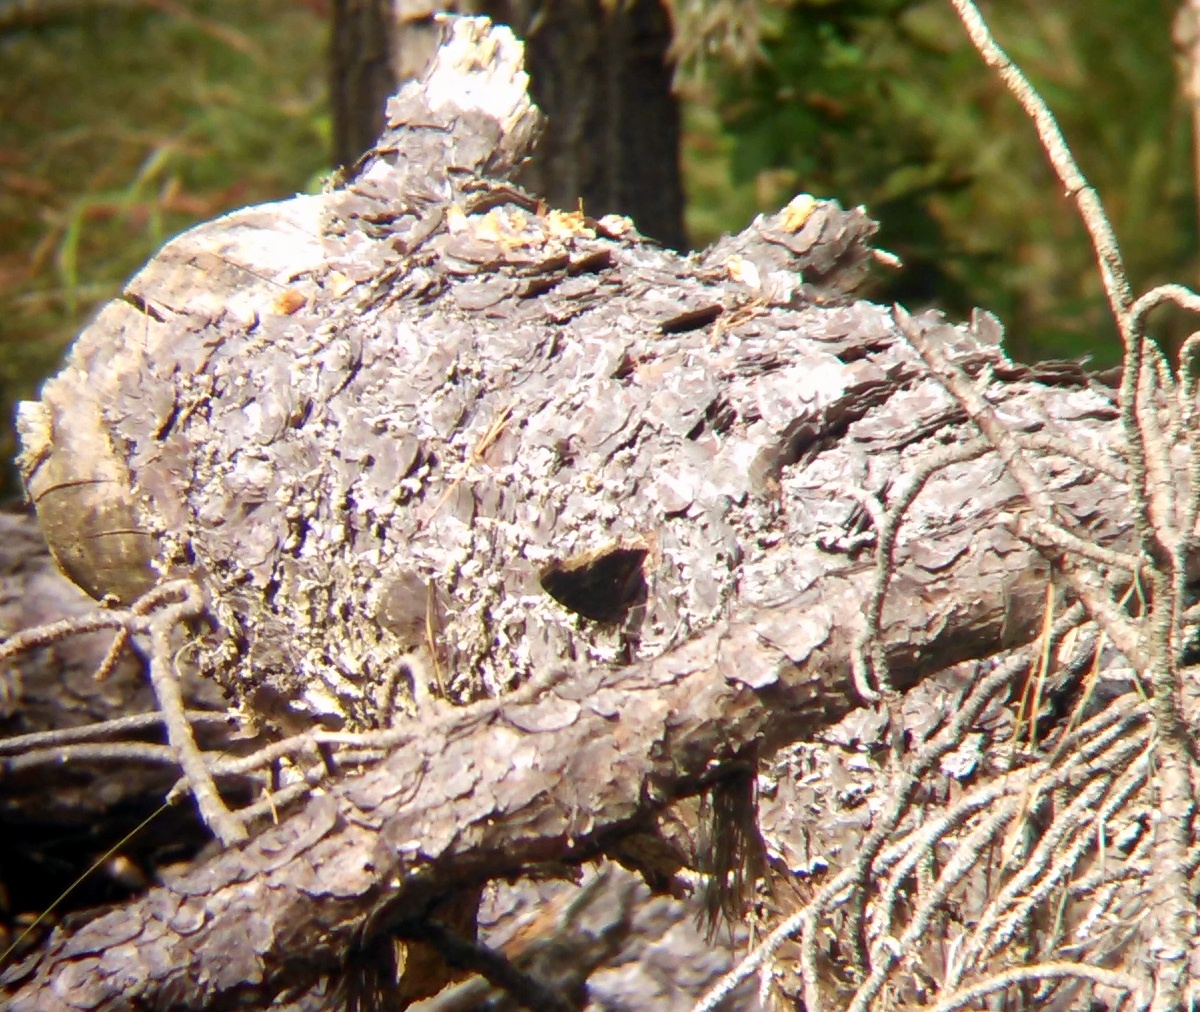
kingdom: Animalia
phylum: Arthropoda
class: Insecta
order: Lepidoptera
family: Nymphalidae
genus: Nymphalis
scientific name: Nymphalis antiopa
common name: Camberwell beauty
